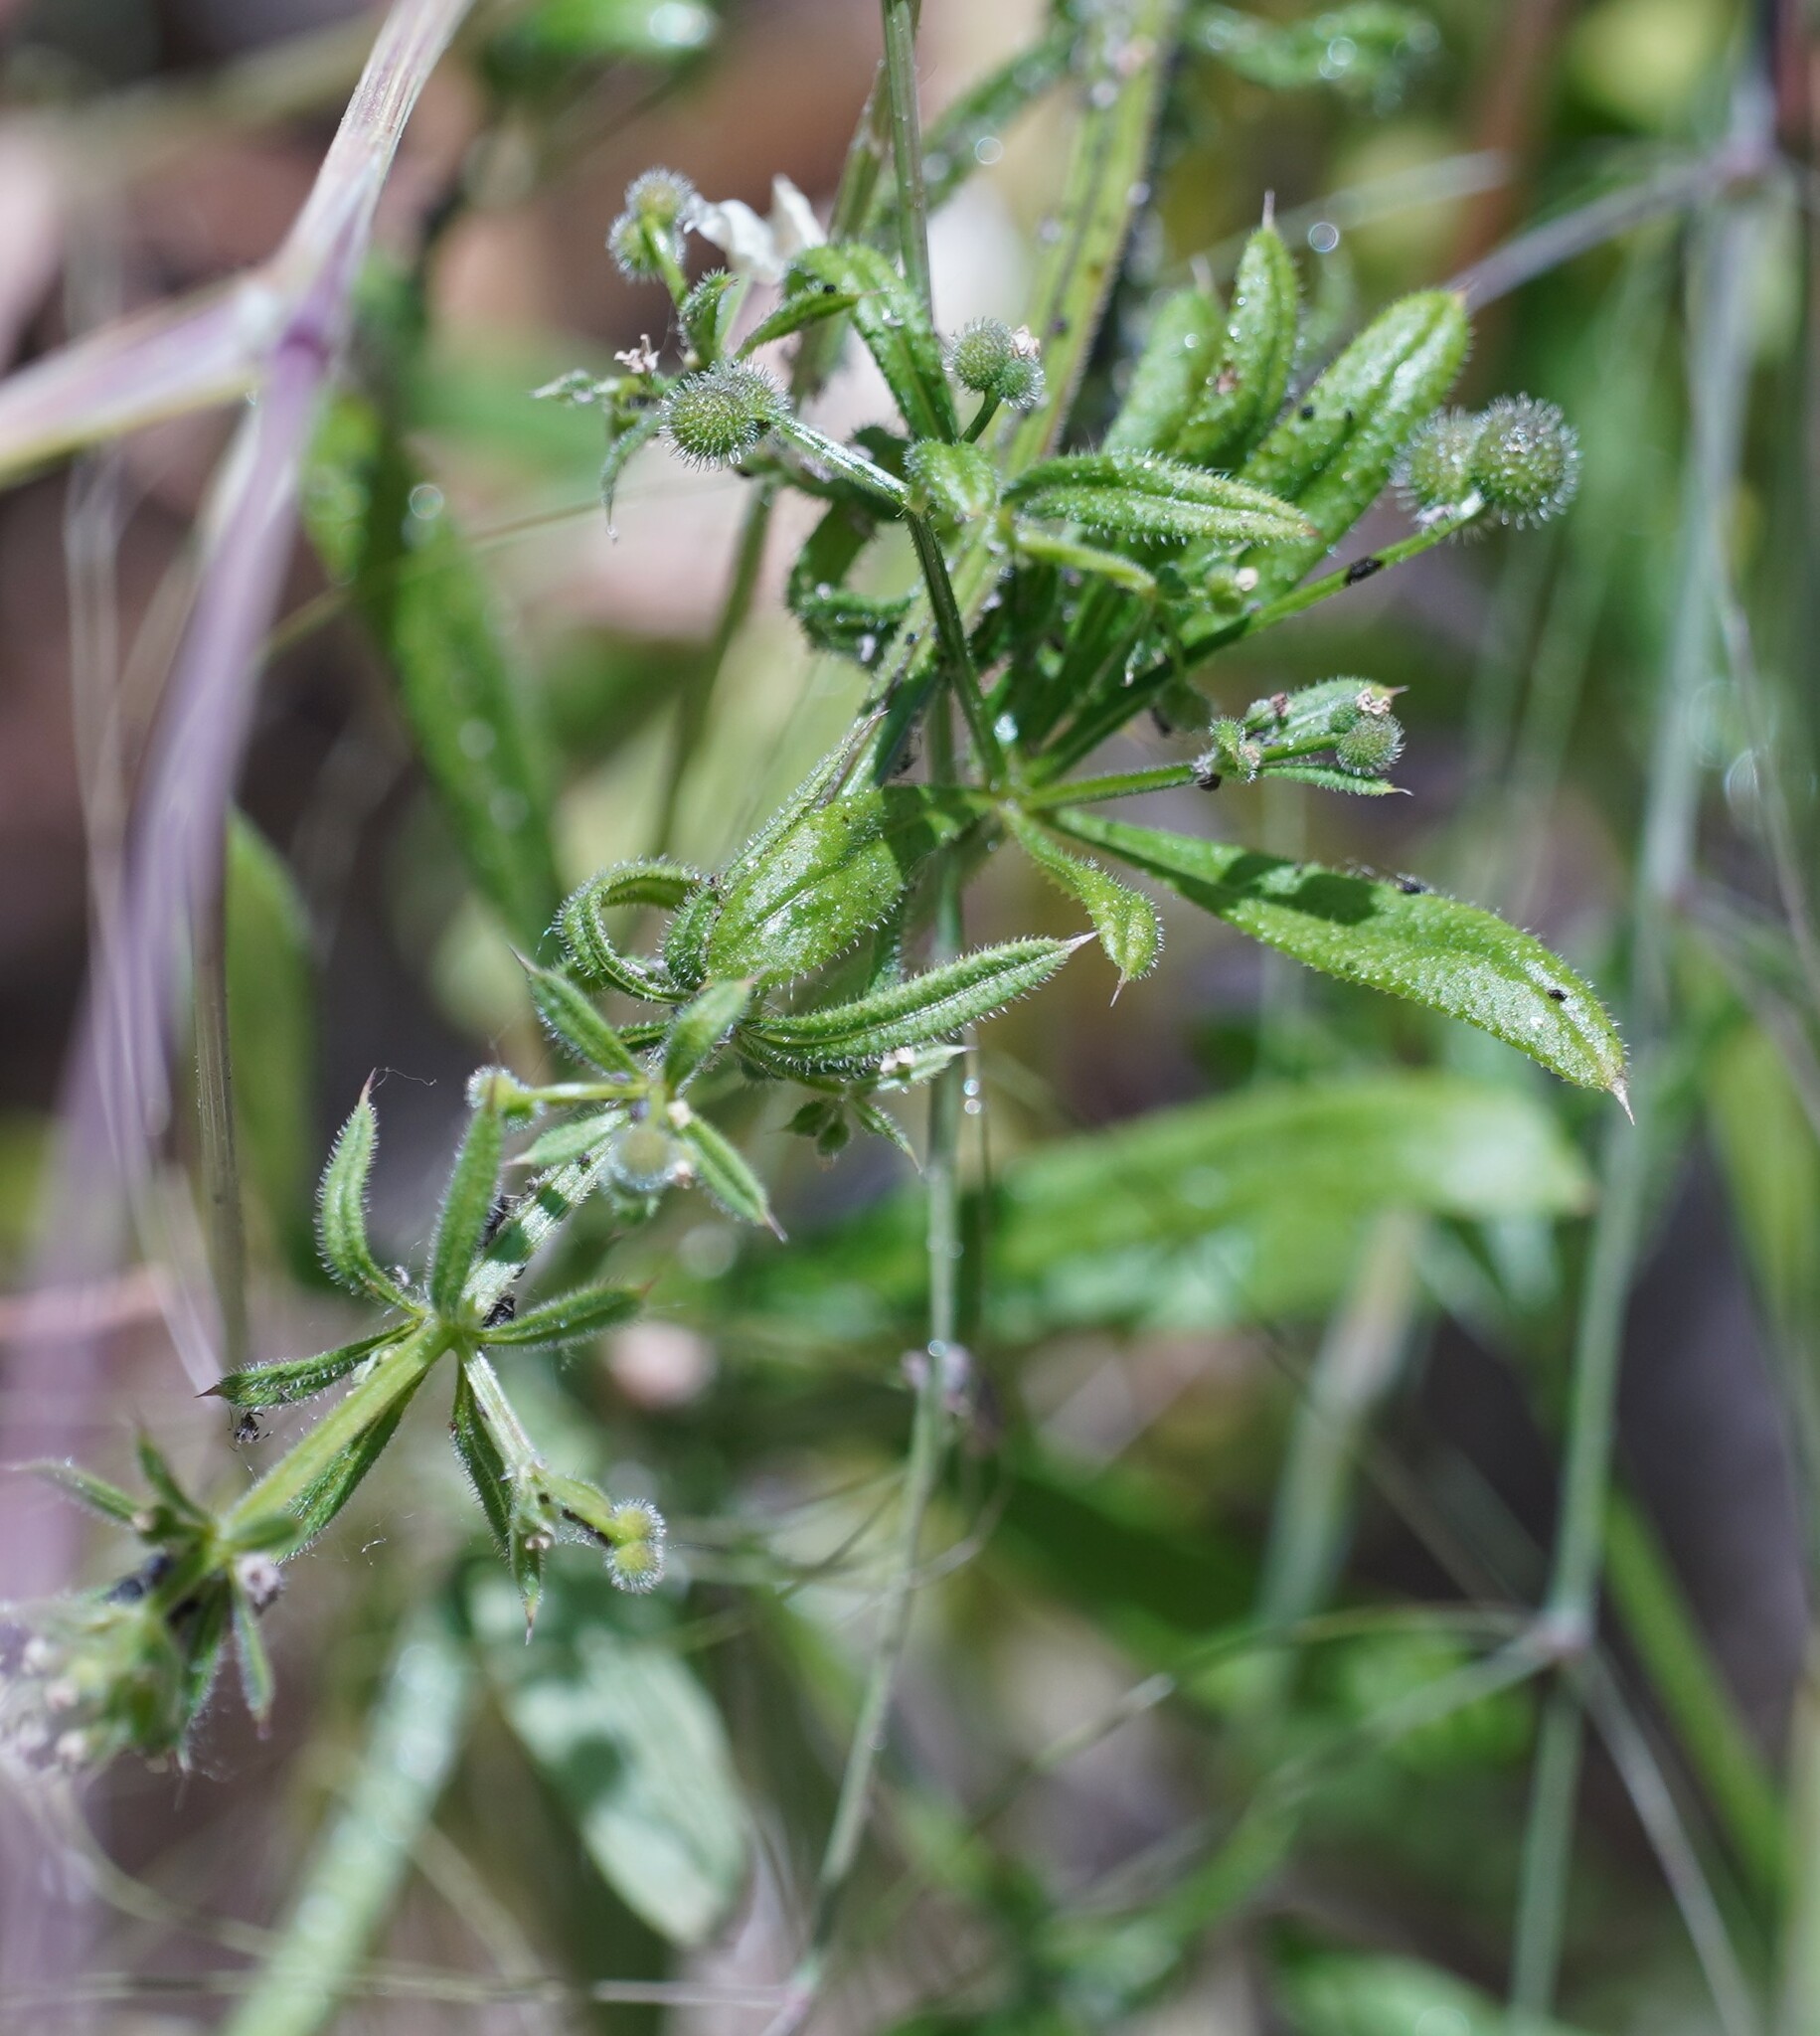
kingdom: Plantae
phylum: Tracheophyta
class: Magnoliopsida
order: Gentianales
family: Rubiaceae
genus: Galium
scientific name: Galium aparine
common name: Cleavers
